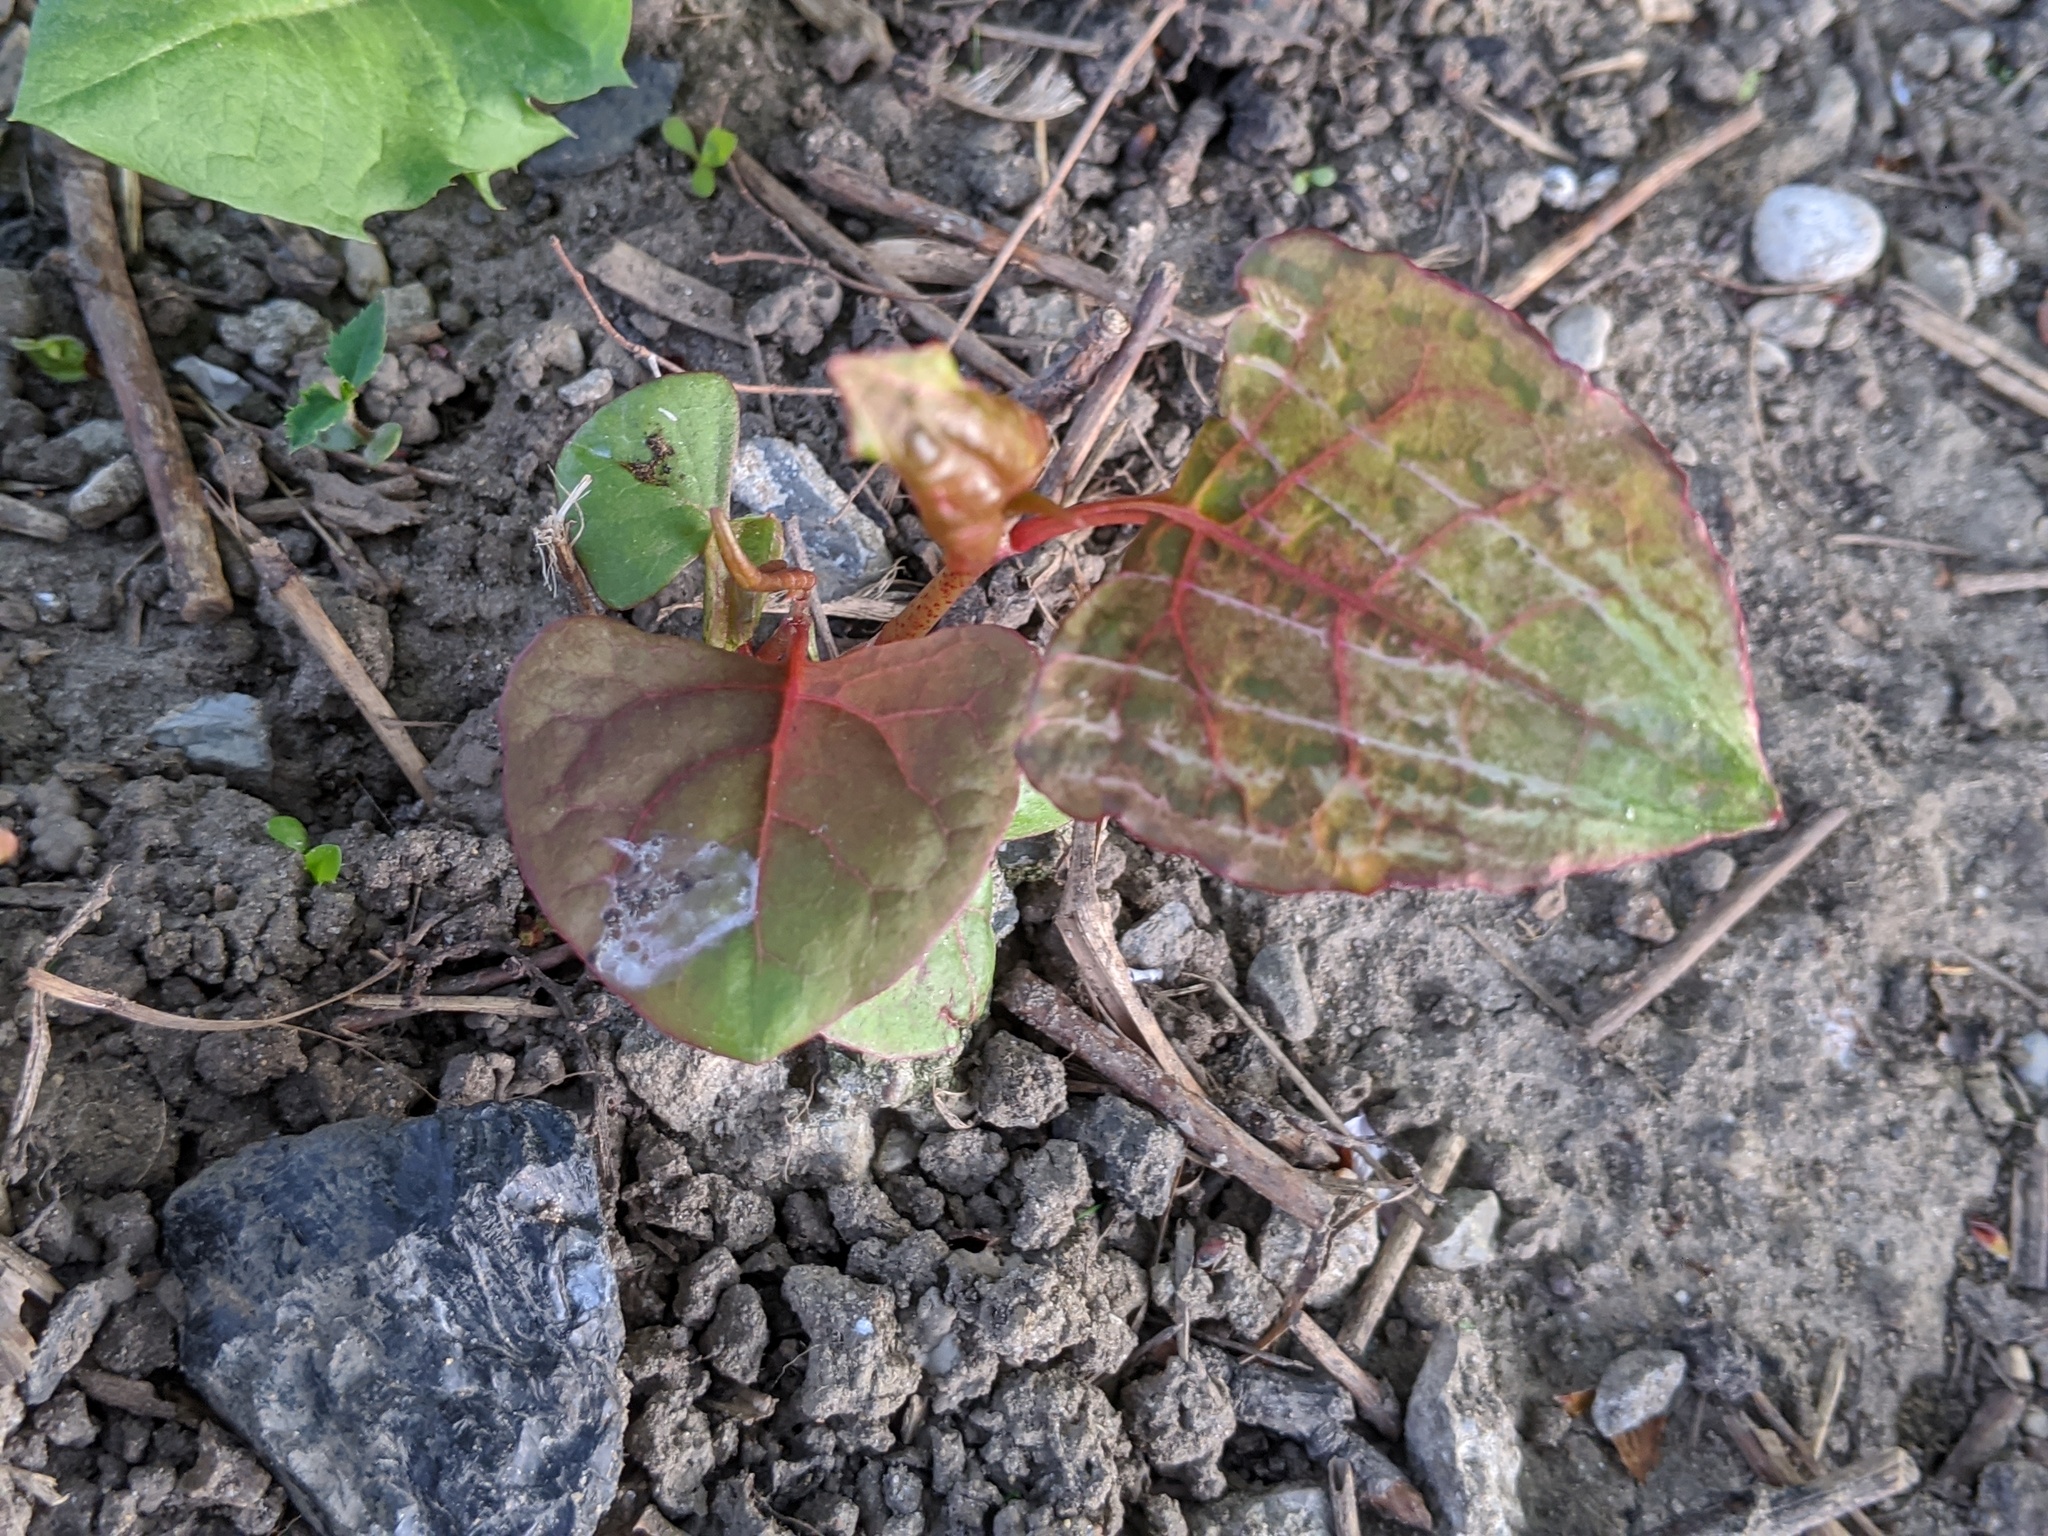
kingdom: Plantae
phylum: Tracheophyta
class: Magnoliopsida
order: Caryophyllales
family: Polygonaceae
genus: Reynoutria
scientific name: Reynoutria japonica
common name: Japanese knotweed
